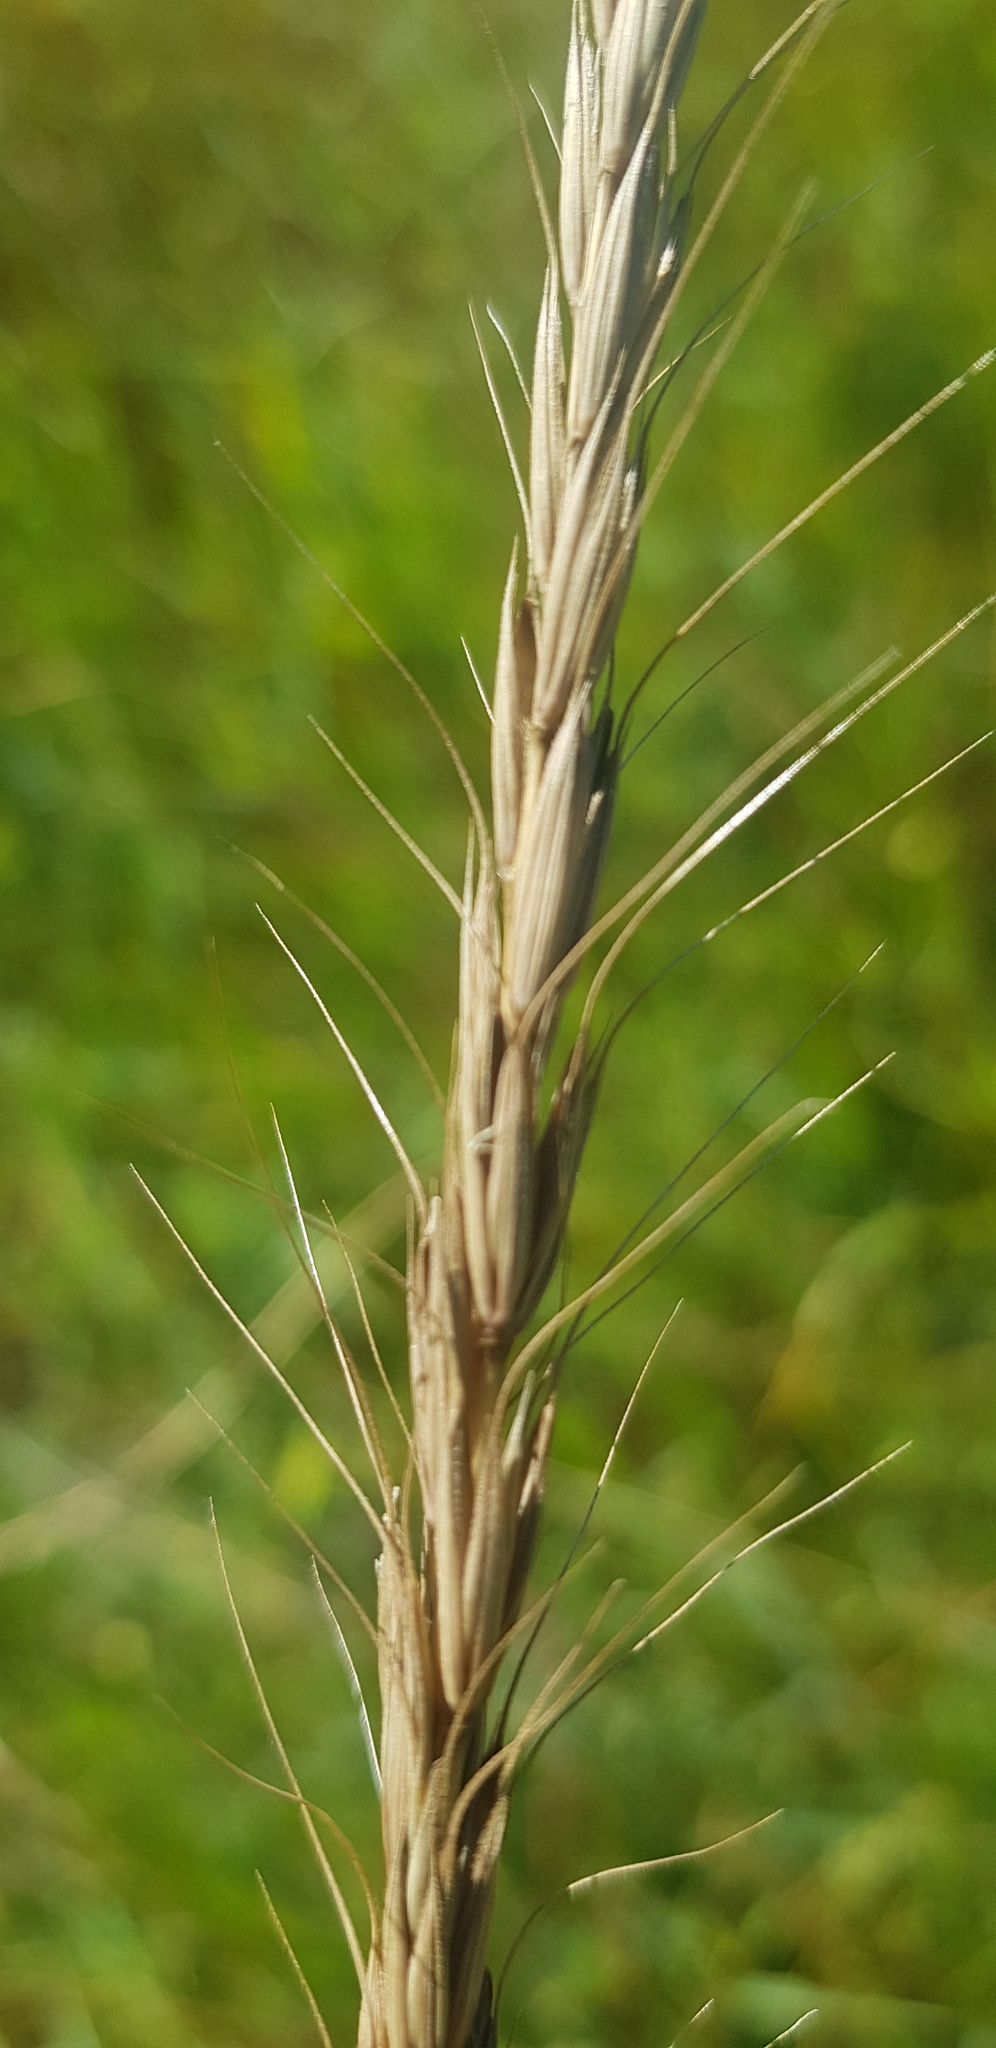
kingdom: Plantae
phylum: Tracheophyta
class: Liliopsida
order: Poales
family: Poaceae
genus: Elymus
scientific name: Elymus sibiricus
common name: Siberian wildrye
